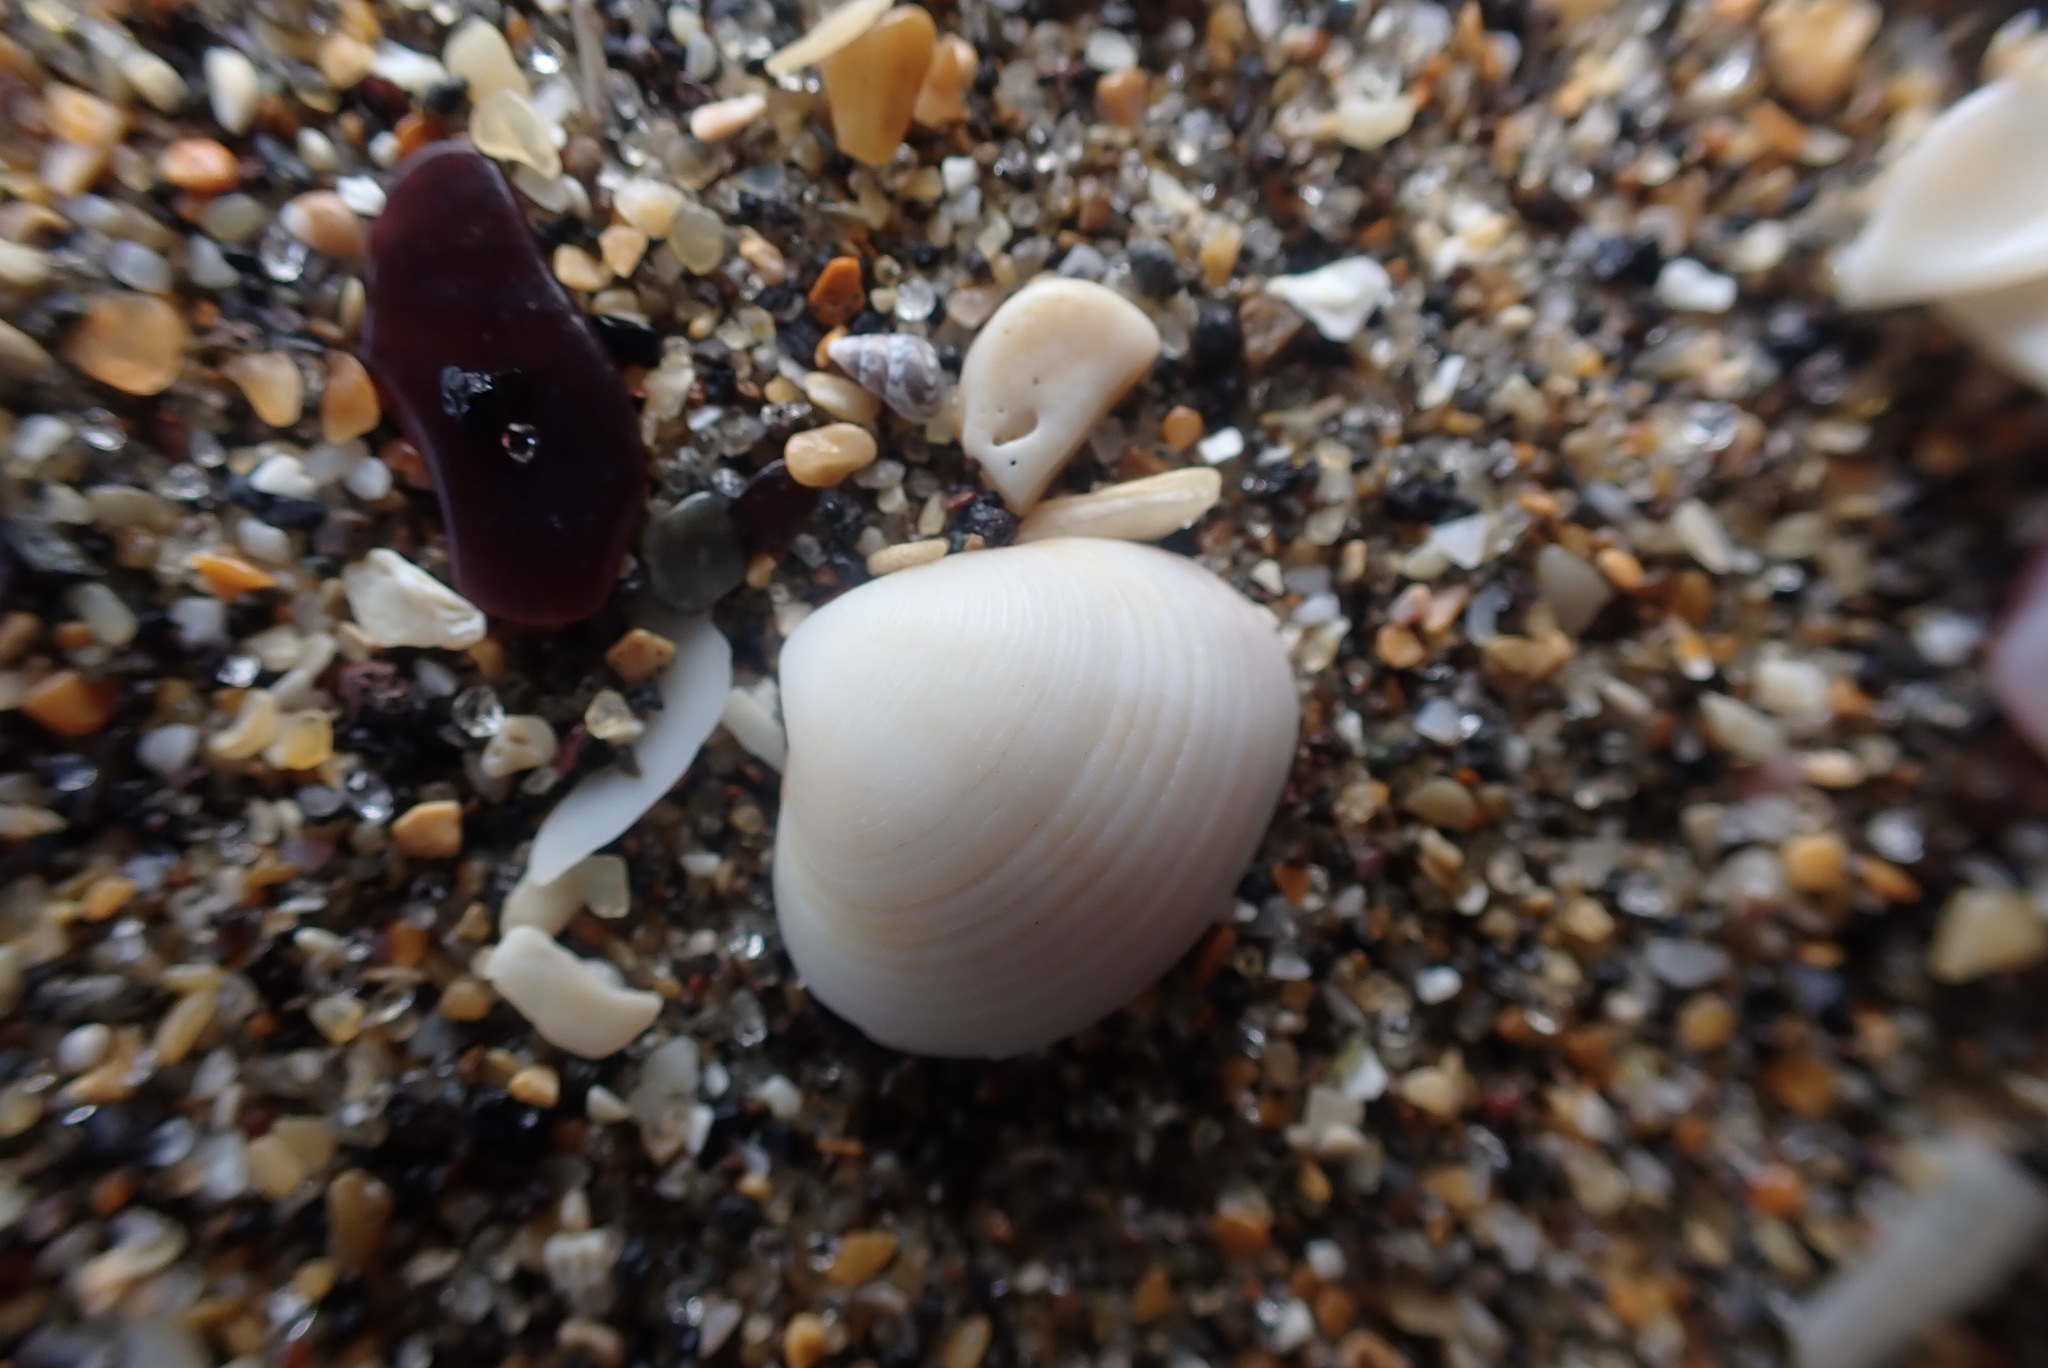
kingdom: Animalia
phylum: Mollusca
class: Bivalvia
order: Venerida
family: Veneridae
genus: Tawera
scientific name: Tawera spissa
